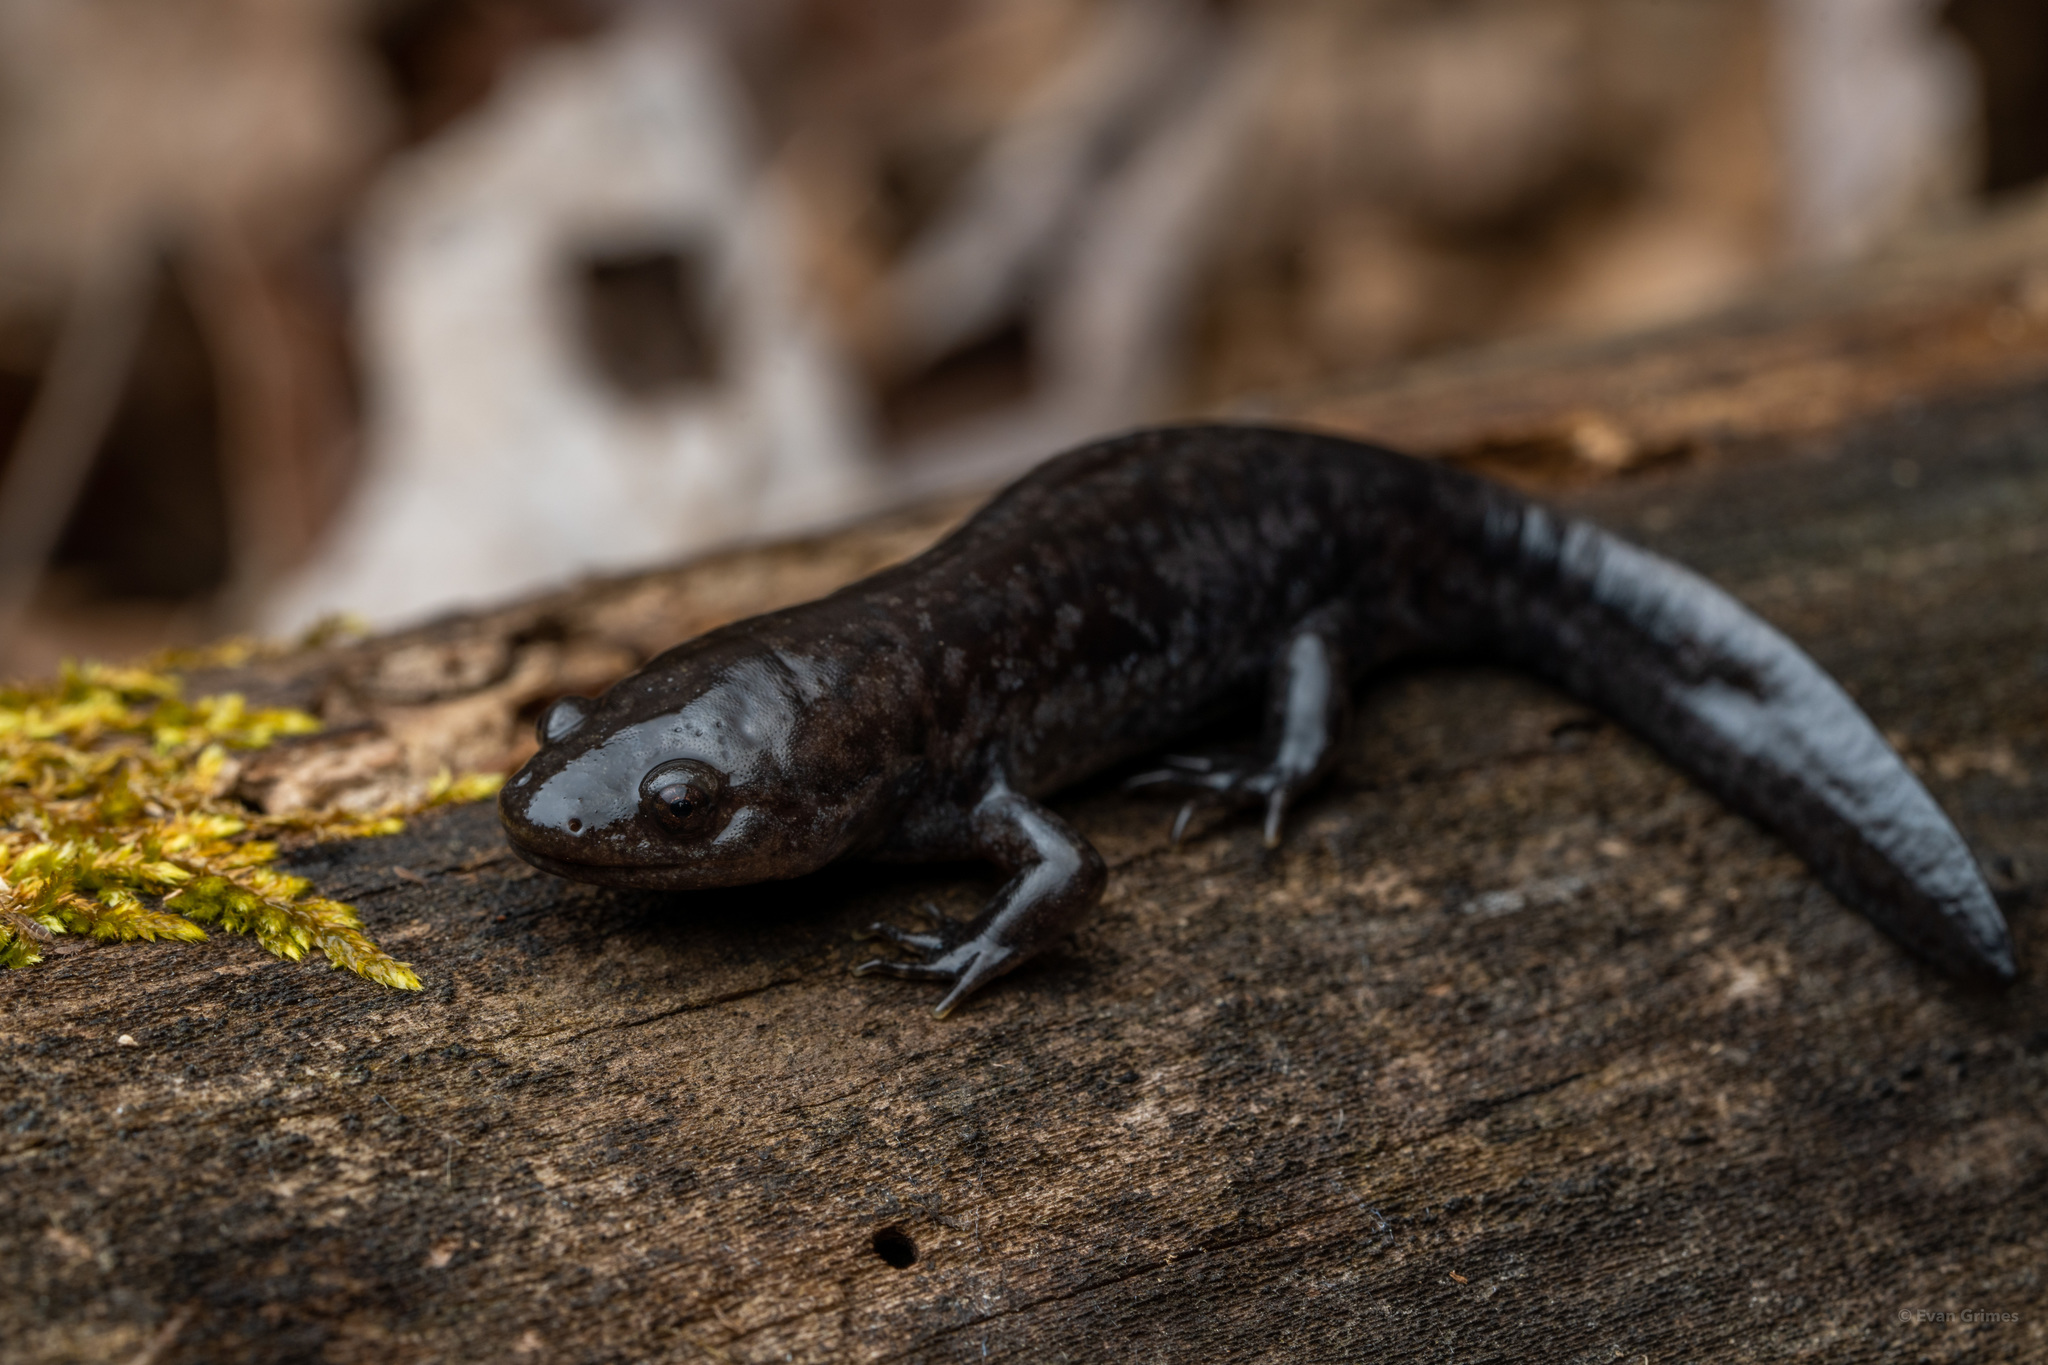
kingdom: Animalia
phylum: Chordata
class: Amphibia
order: Caudata
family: Ambystomatidae
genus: Ambystoma
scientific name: Ambystoma talpoideum
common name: Mole salamander
